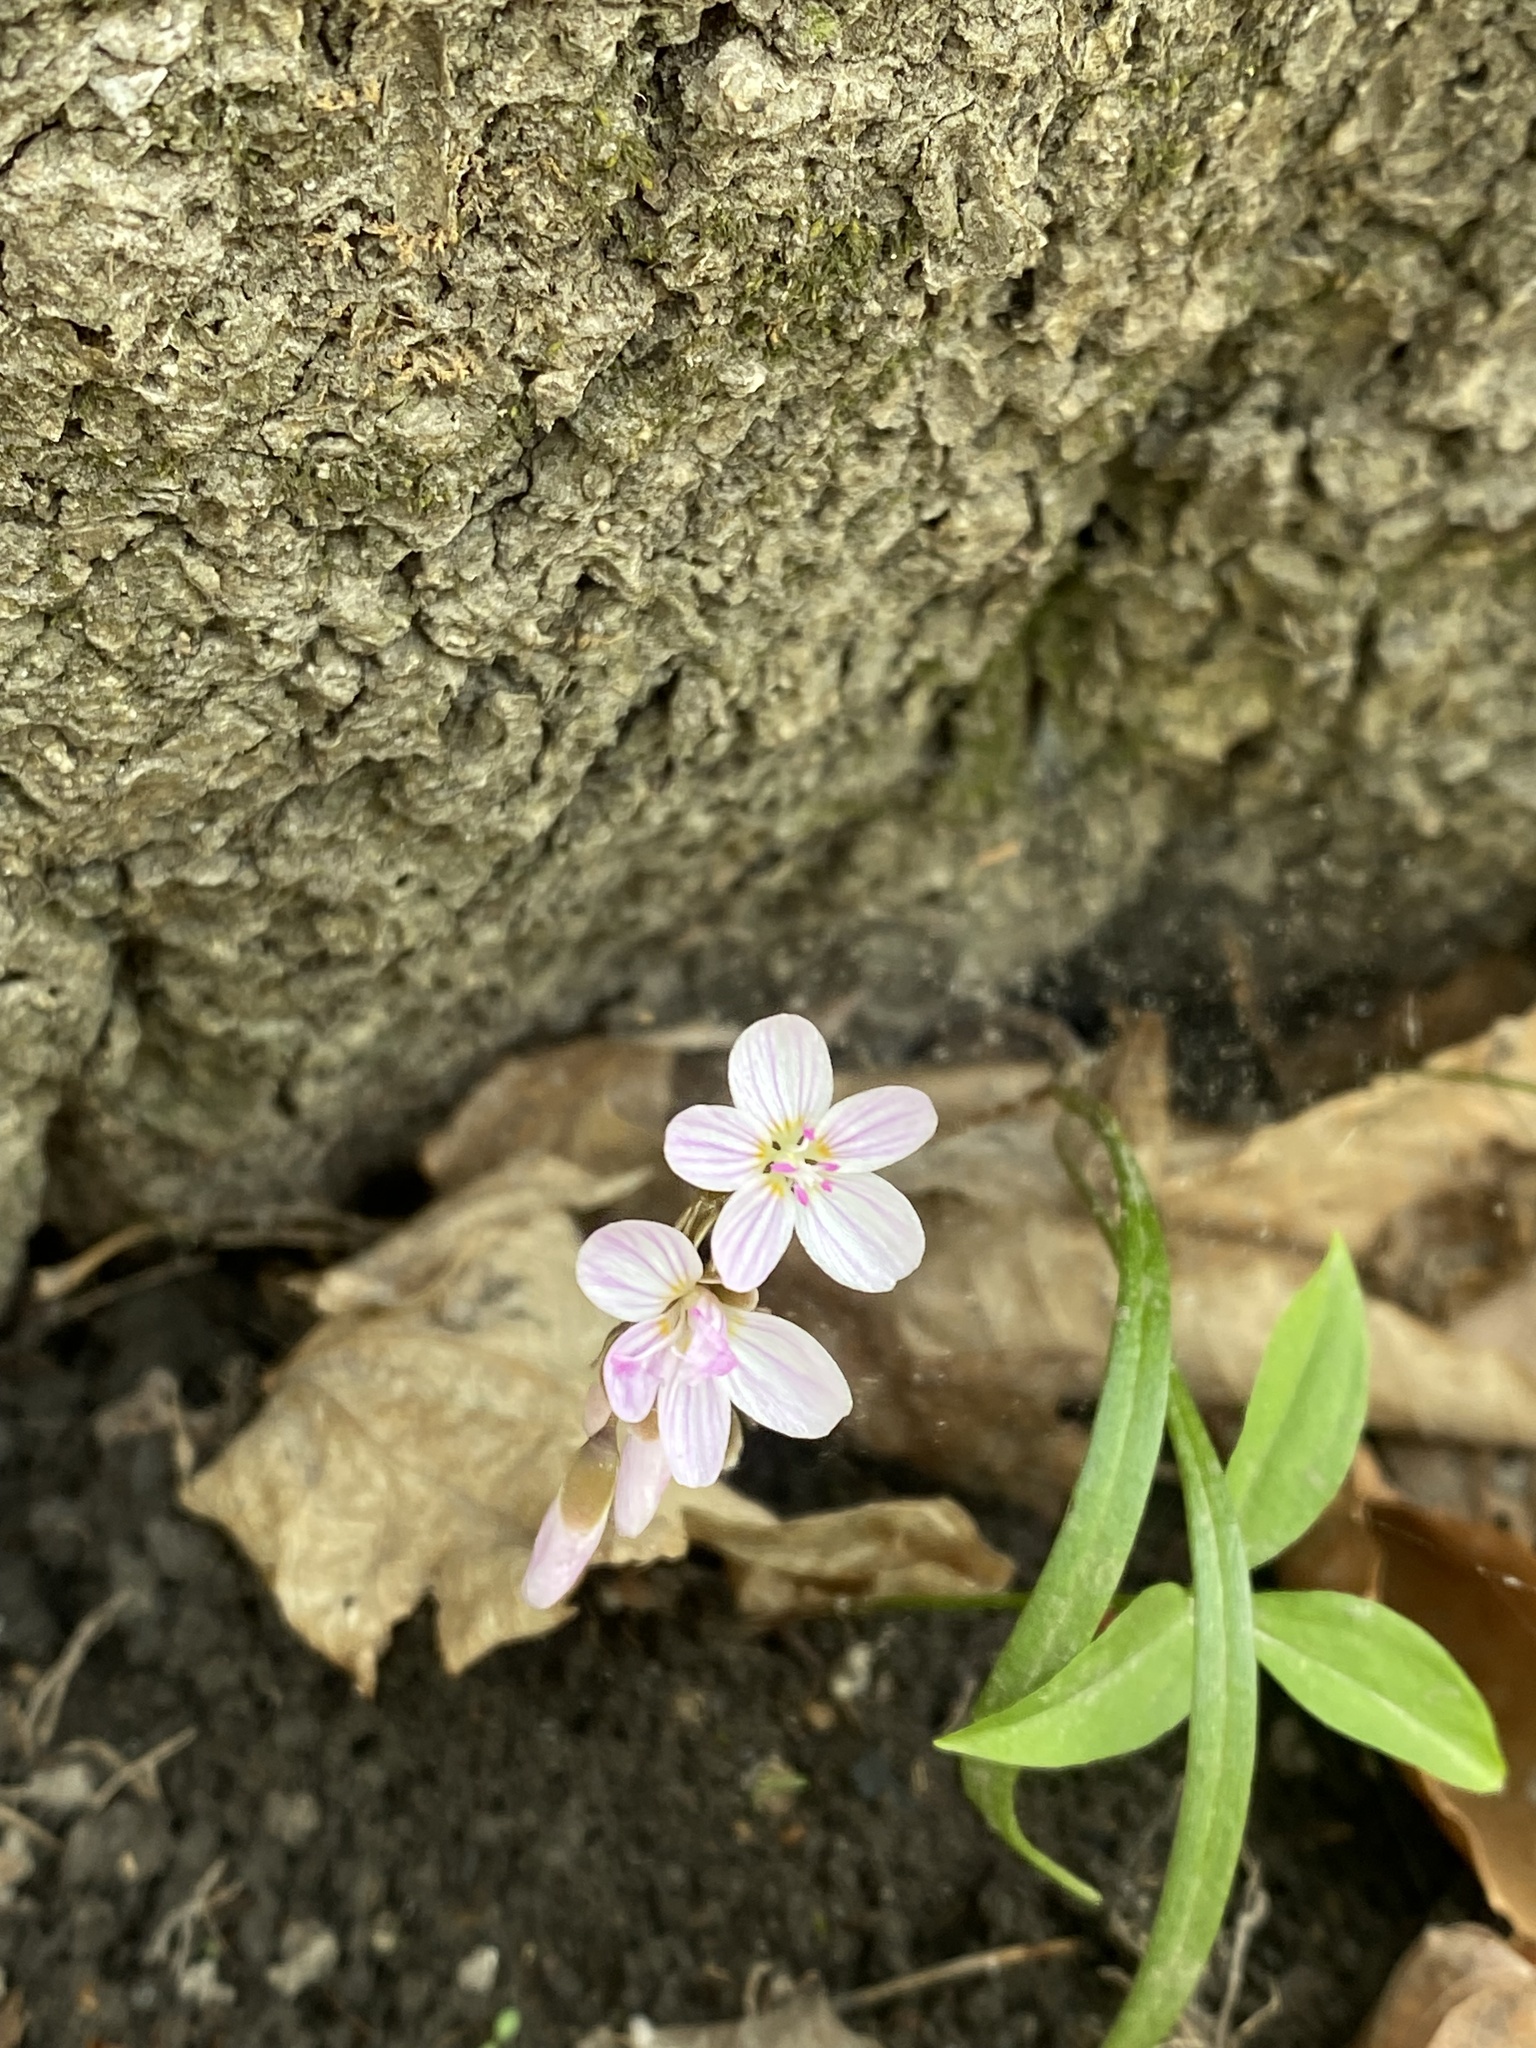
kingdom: Plantae
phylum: Tracheophyta
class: Magnoliopsida
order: Caryophyllales
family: Montiaceae
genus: Claytonia
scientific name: Claytonia virginica
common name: Virginia springbeauty
